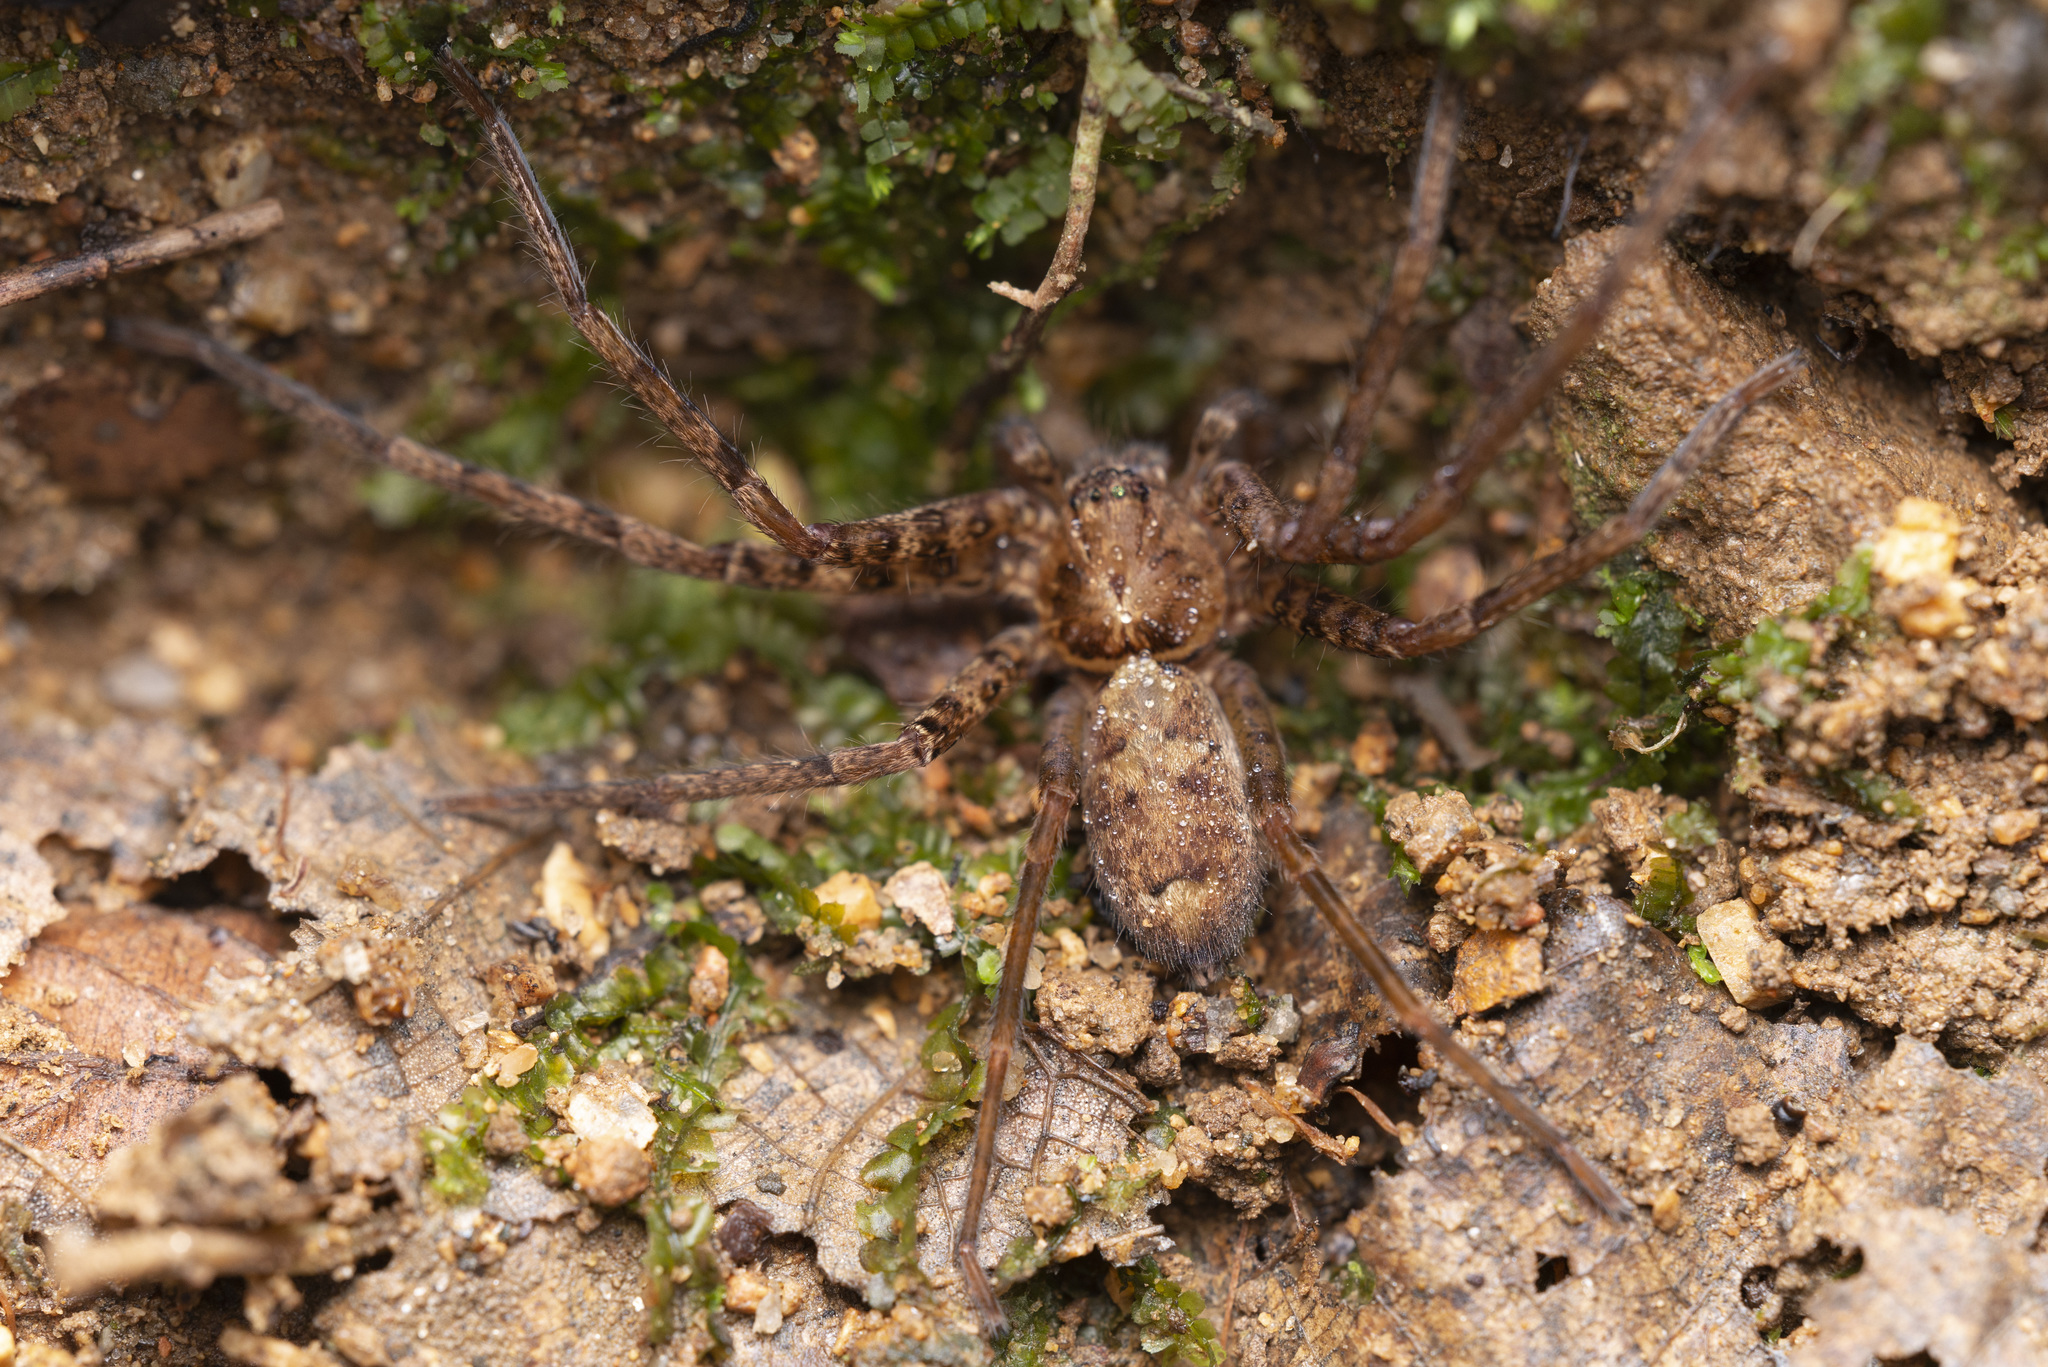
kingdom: Animalia
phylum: Arthropoda
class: Arachnida
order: Araneae
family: Sparassidae
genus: Heteropoda
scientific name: Heteropoda amphora
